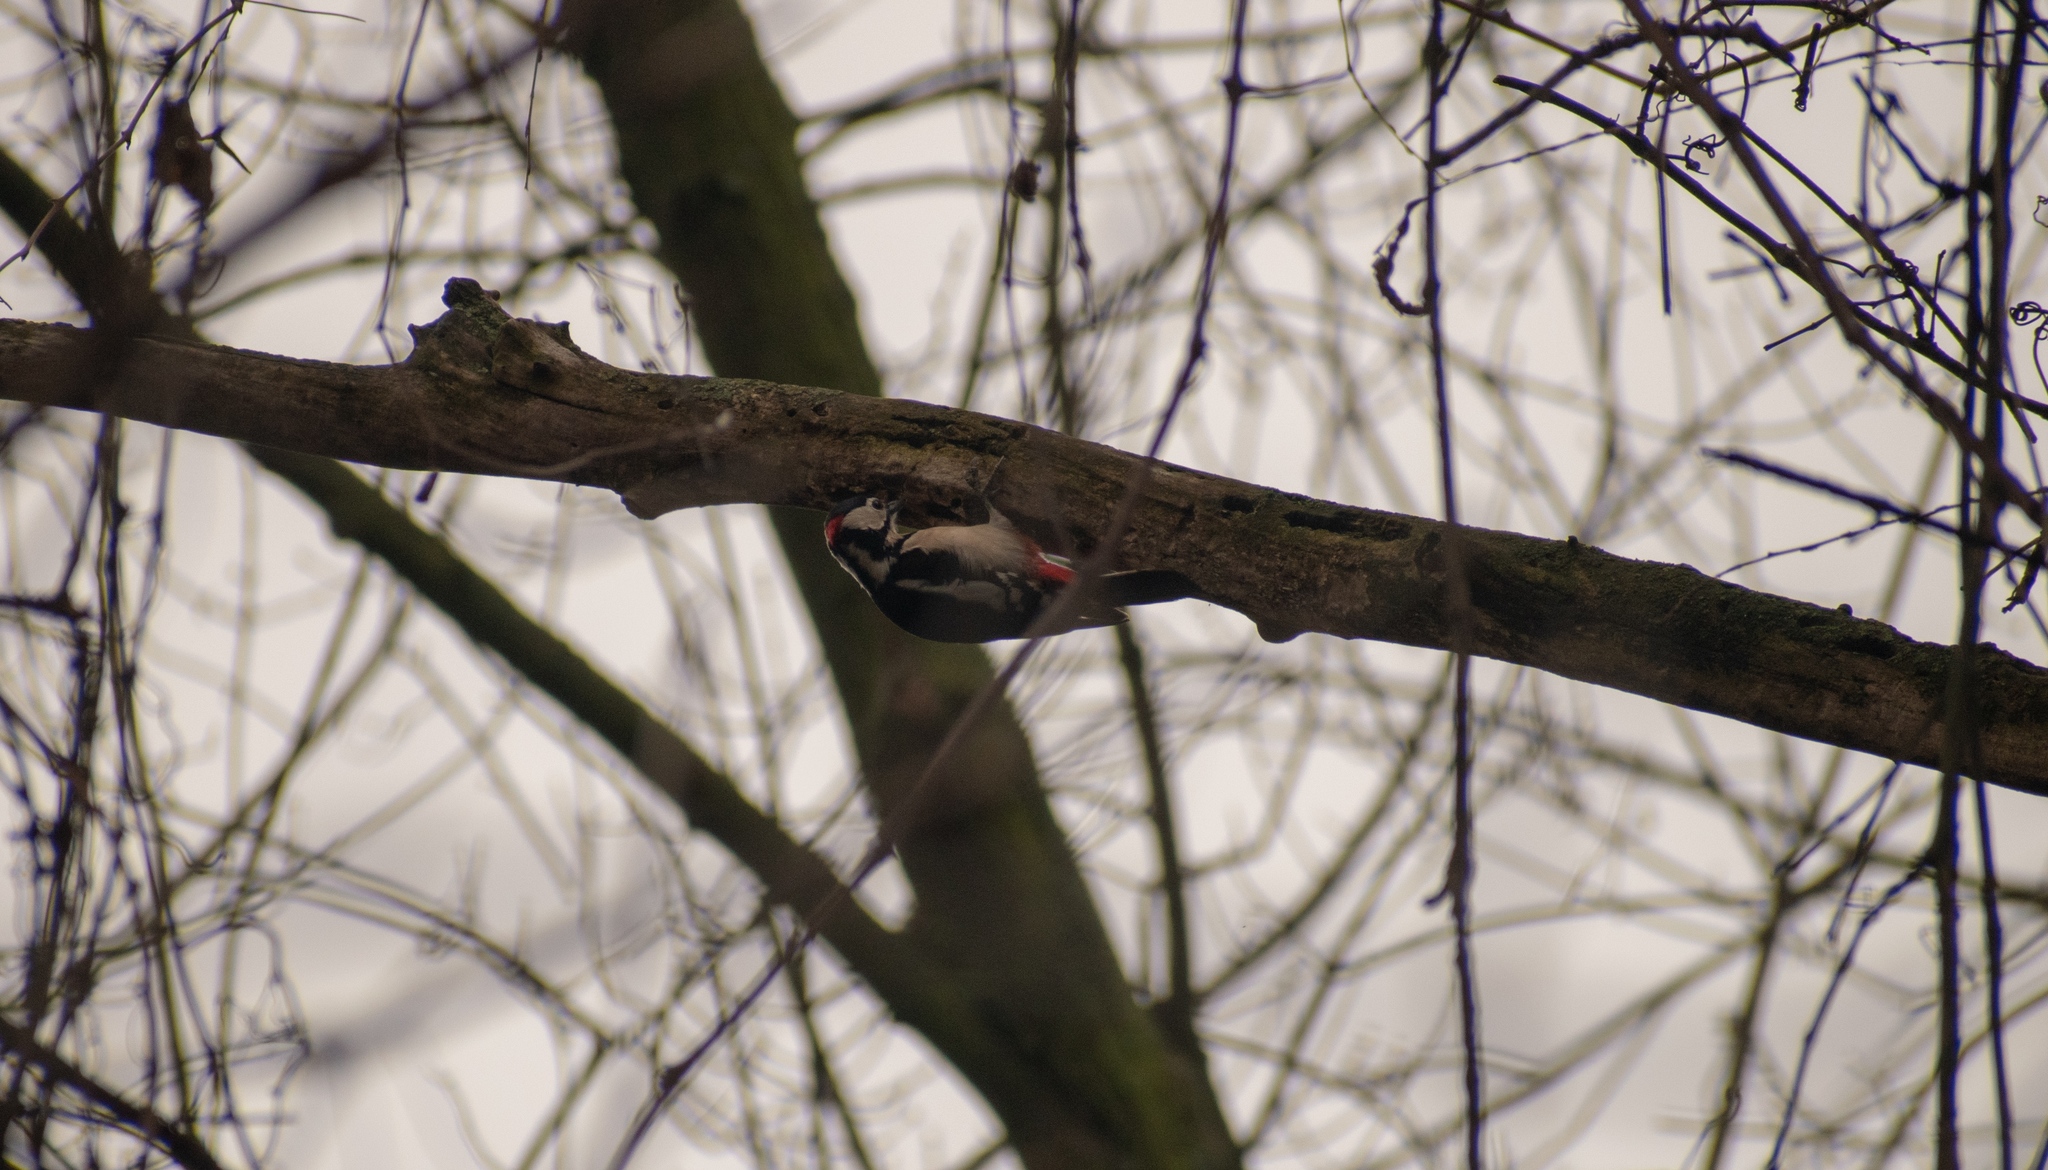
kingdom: Animalia
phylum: Chordata
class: Aves
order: Piciformes
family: Picidae
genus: Dendrocopos
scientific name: Dendrocopos major
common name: Great spotted woodpecker
